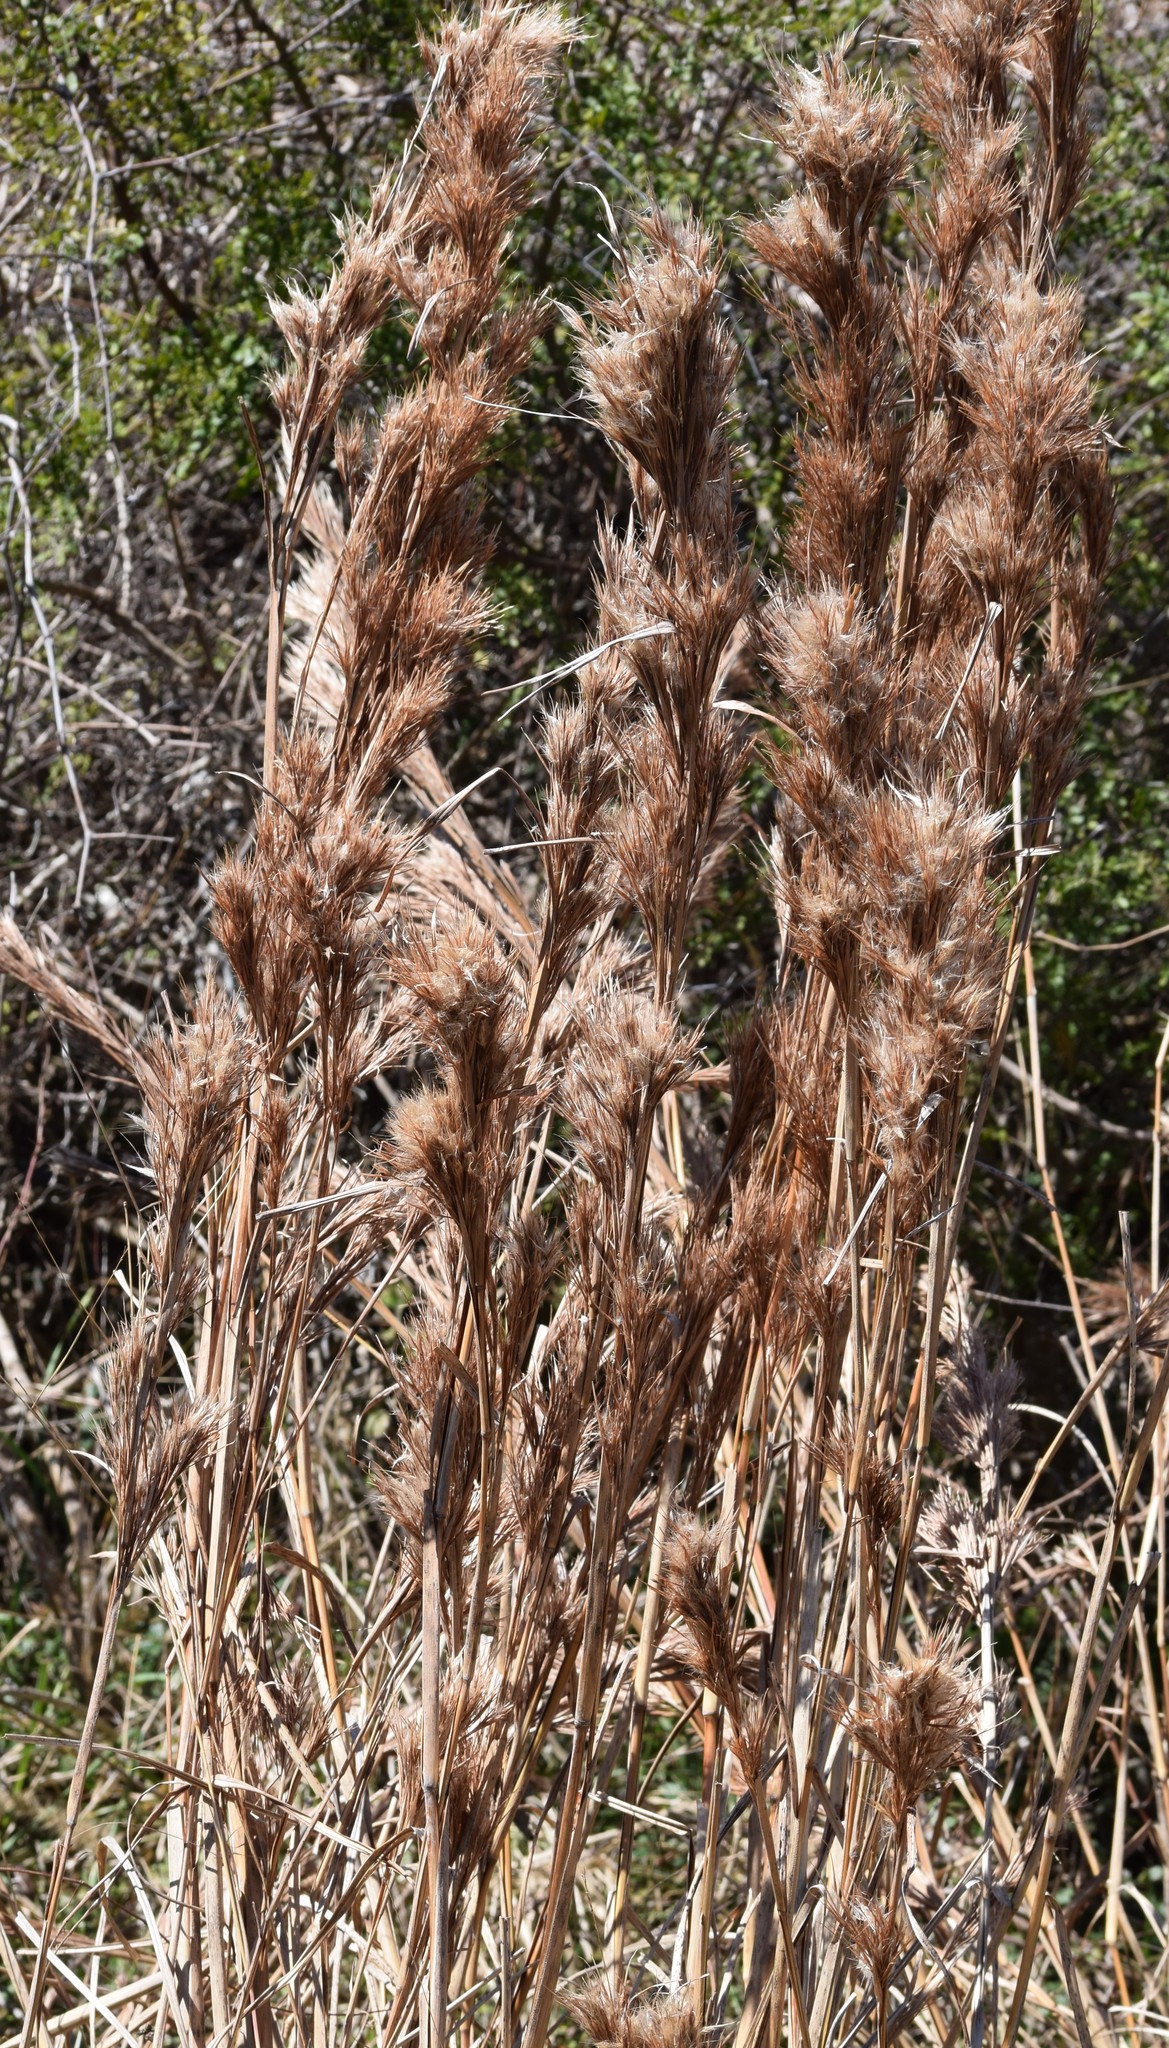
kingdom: Plantae
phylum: Tracheophyta
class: Liliopsida
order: Poales
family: Poaceae
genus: Andropogon
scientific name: Andropogon tenuispatheus
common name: Bushy bluestem
